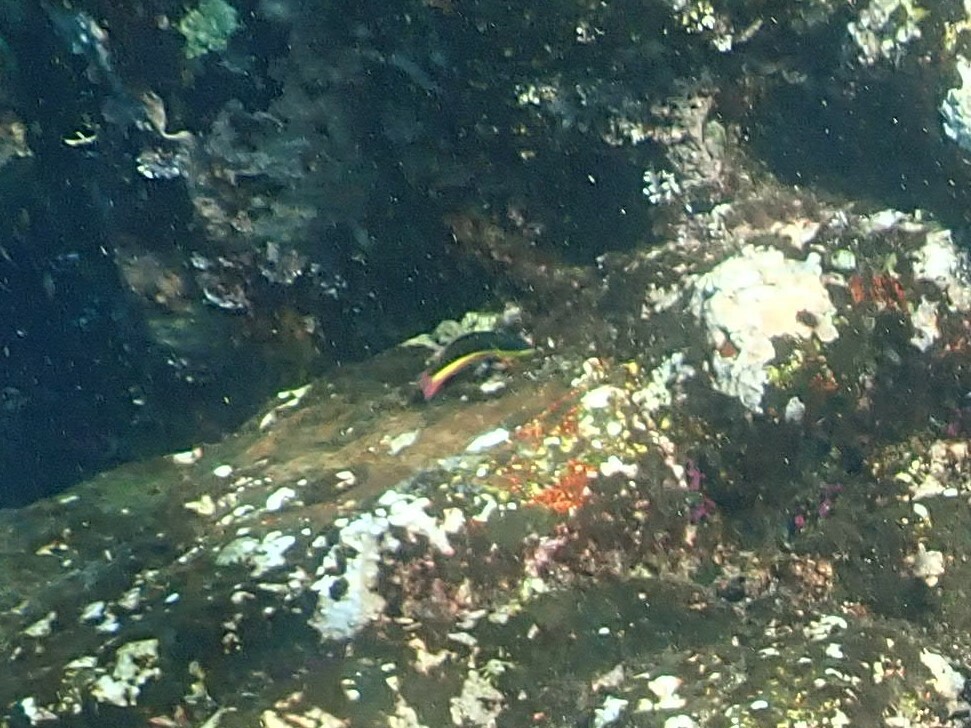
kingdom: Animalia
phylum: Chordata
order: Perciformes
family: Labridae
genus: Thalassoma
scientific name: Thalassoma lucasanum
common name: Cortez rainbow wrasse
